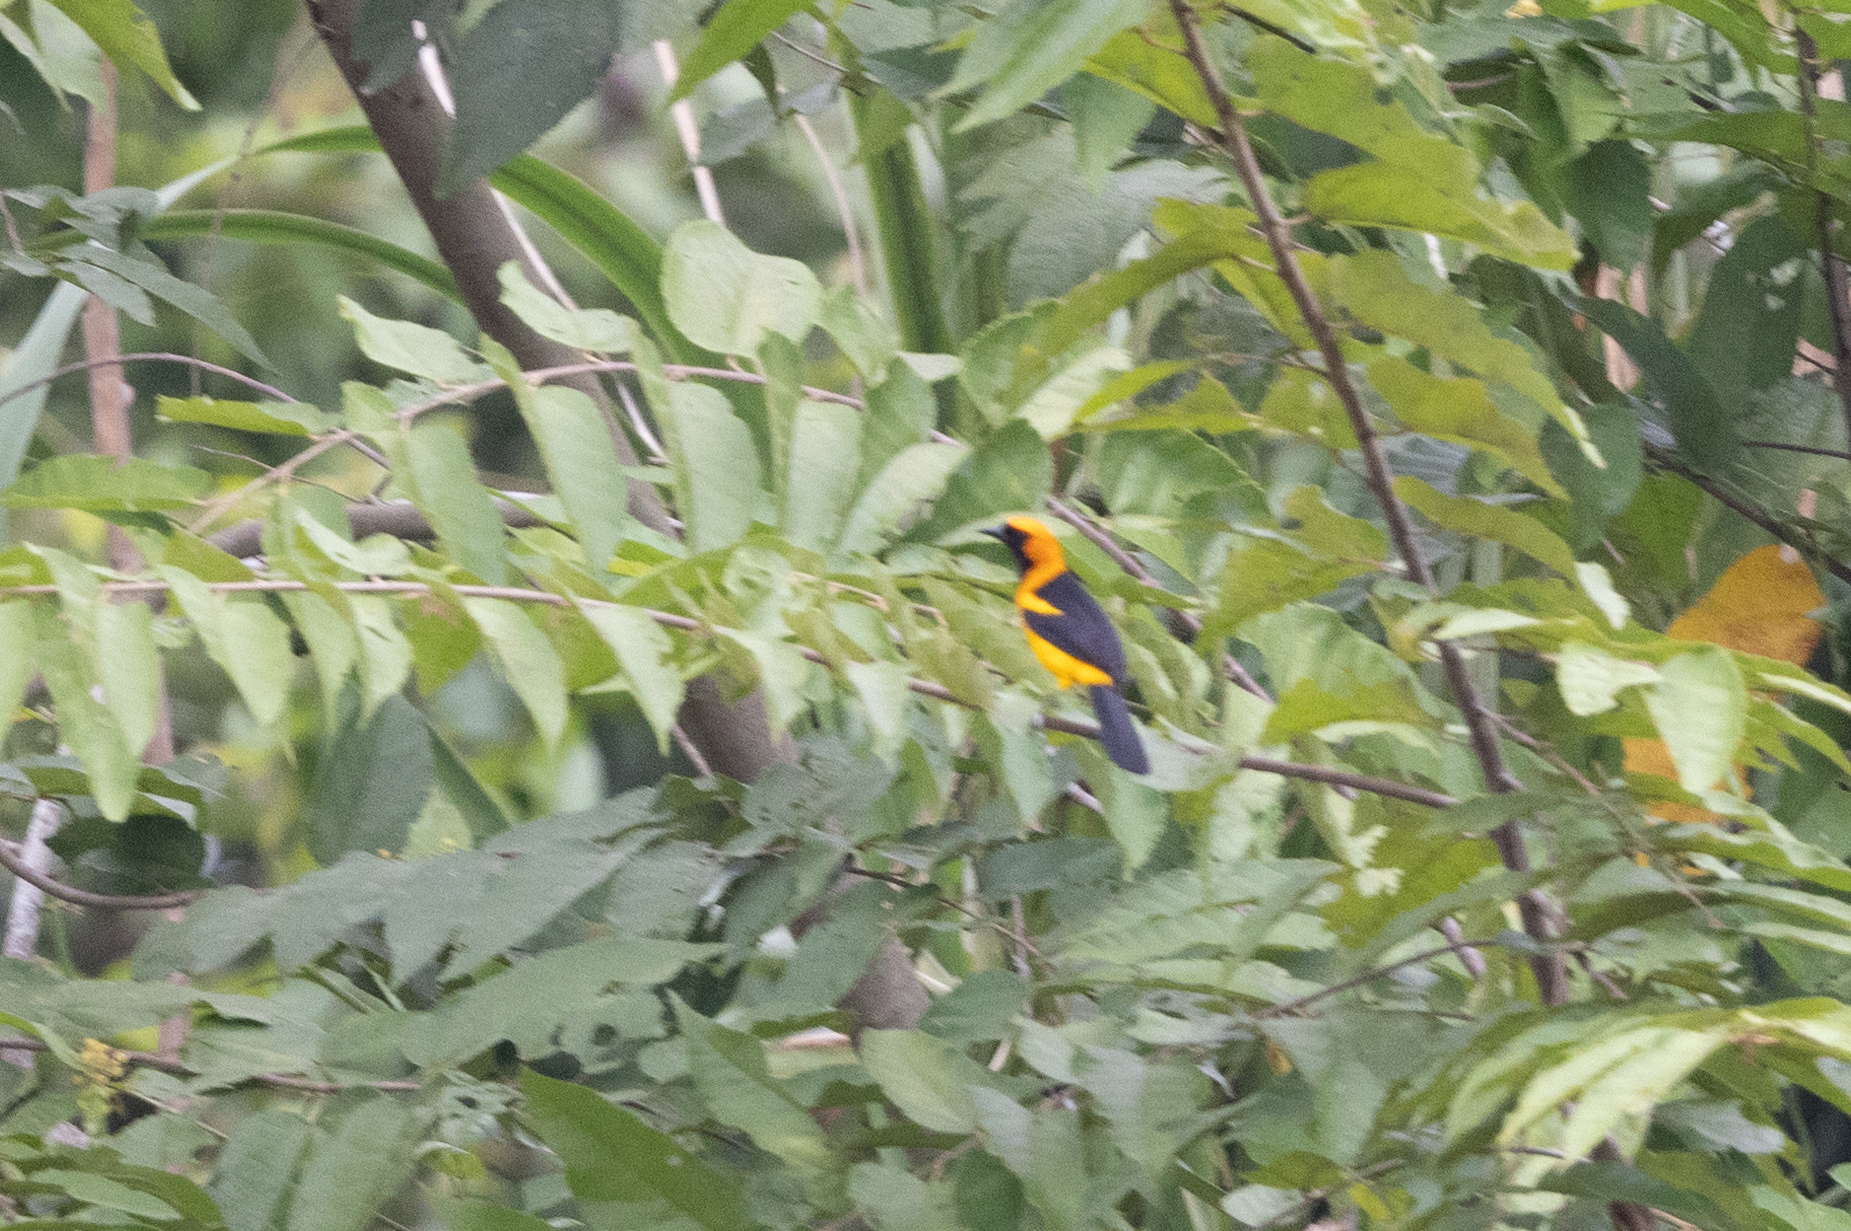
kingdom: Animalia
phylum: Chordata
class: Aves
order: Passeriformes
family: Icteridae
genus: Icterus
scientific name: Icterus auricapillus
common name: Orange-crowned oriole
